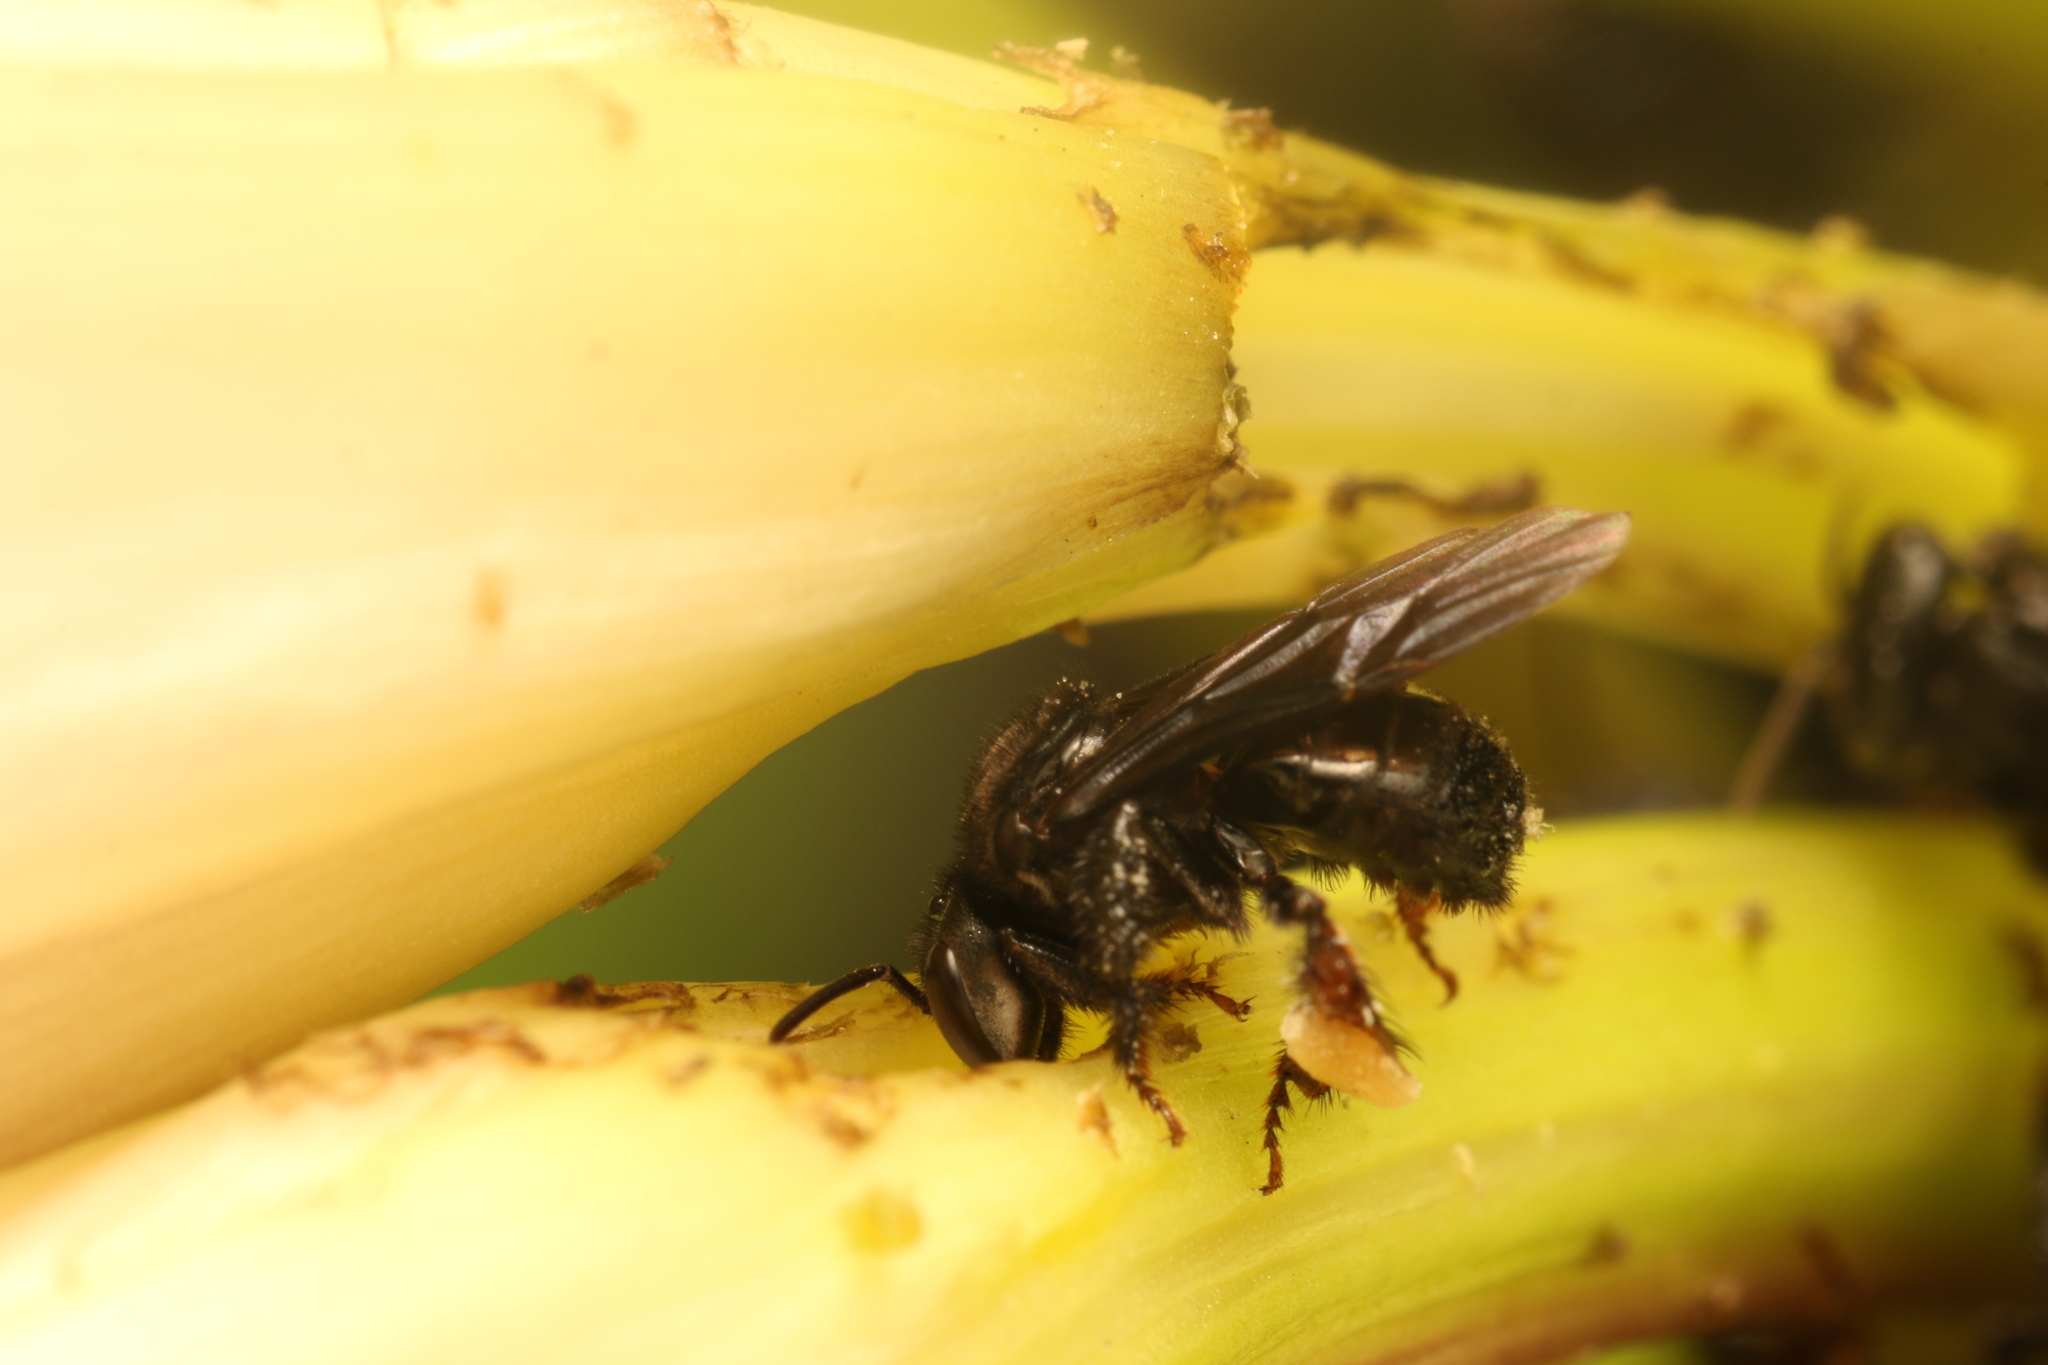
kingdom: Animalia
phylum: Arthropoda
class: Insecta
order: Hymenoptera
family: Apidae
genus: Trigona
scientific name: Trigona spinipes
